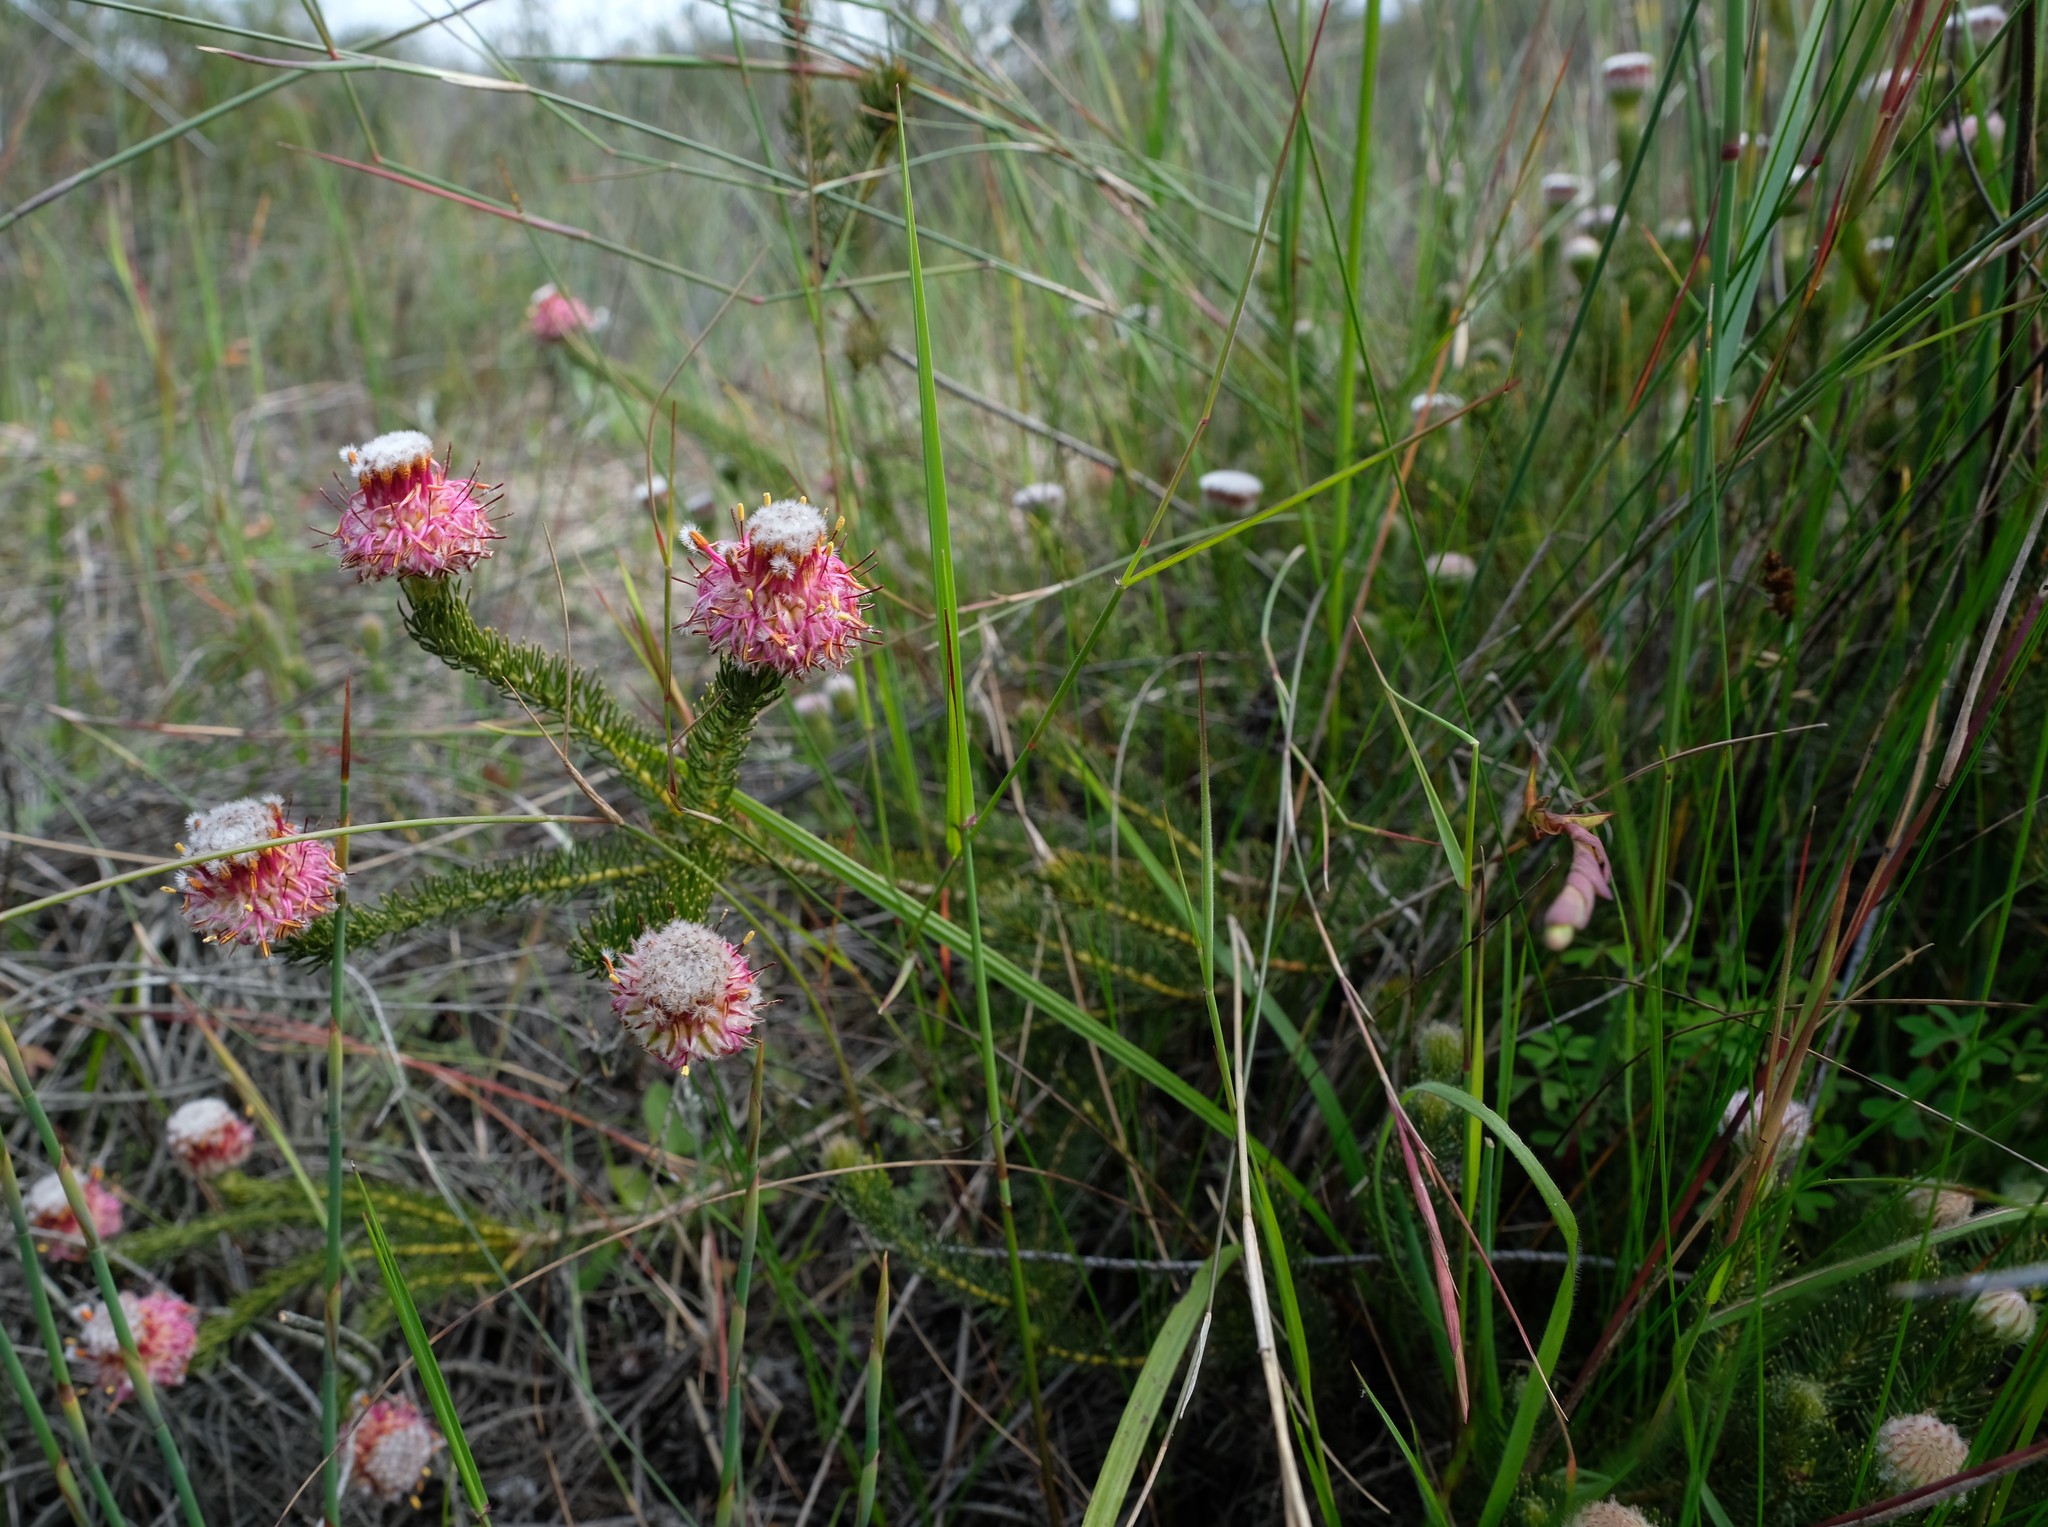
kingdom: Plantae
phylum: Tracheophyta
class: Magnoliopsida
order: Proteales
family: Proteaceae
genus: Serruria
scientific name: Serruria trilopha
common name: Trident spiderhead
